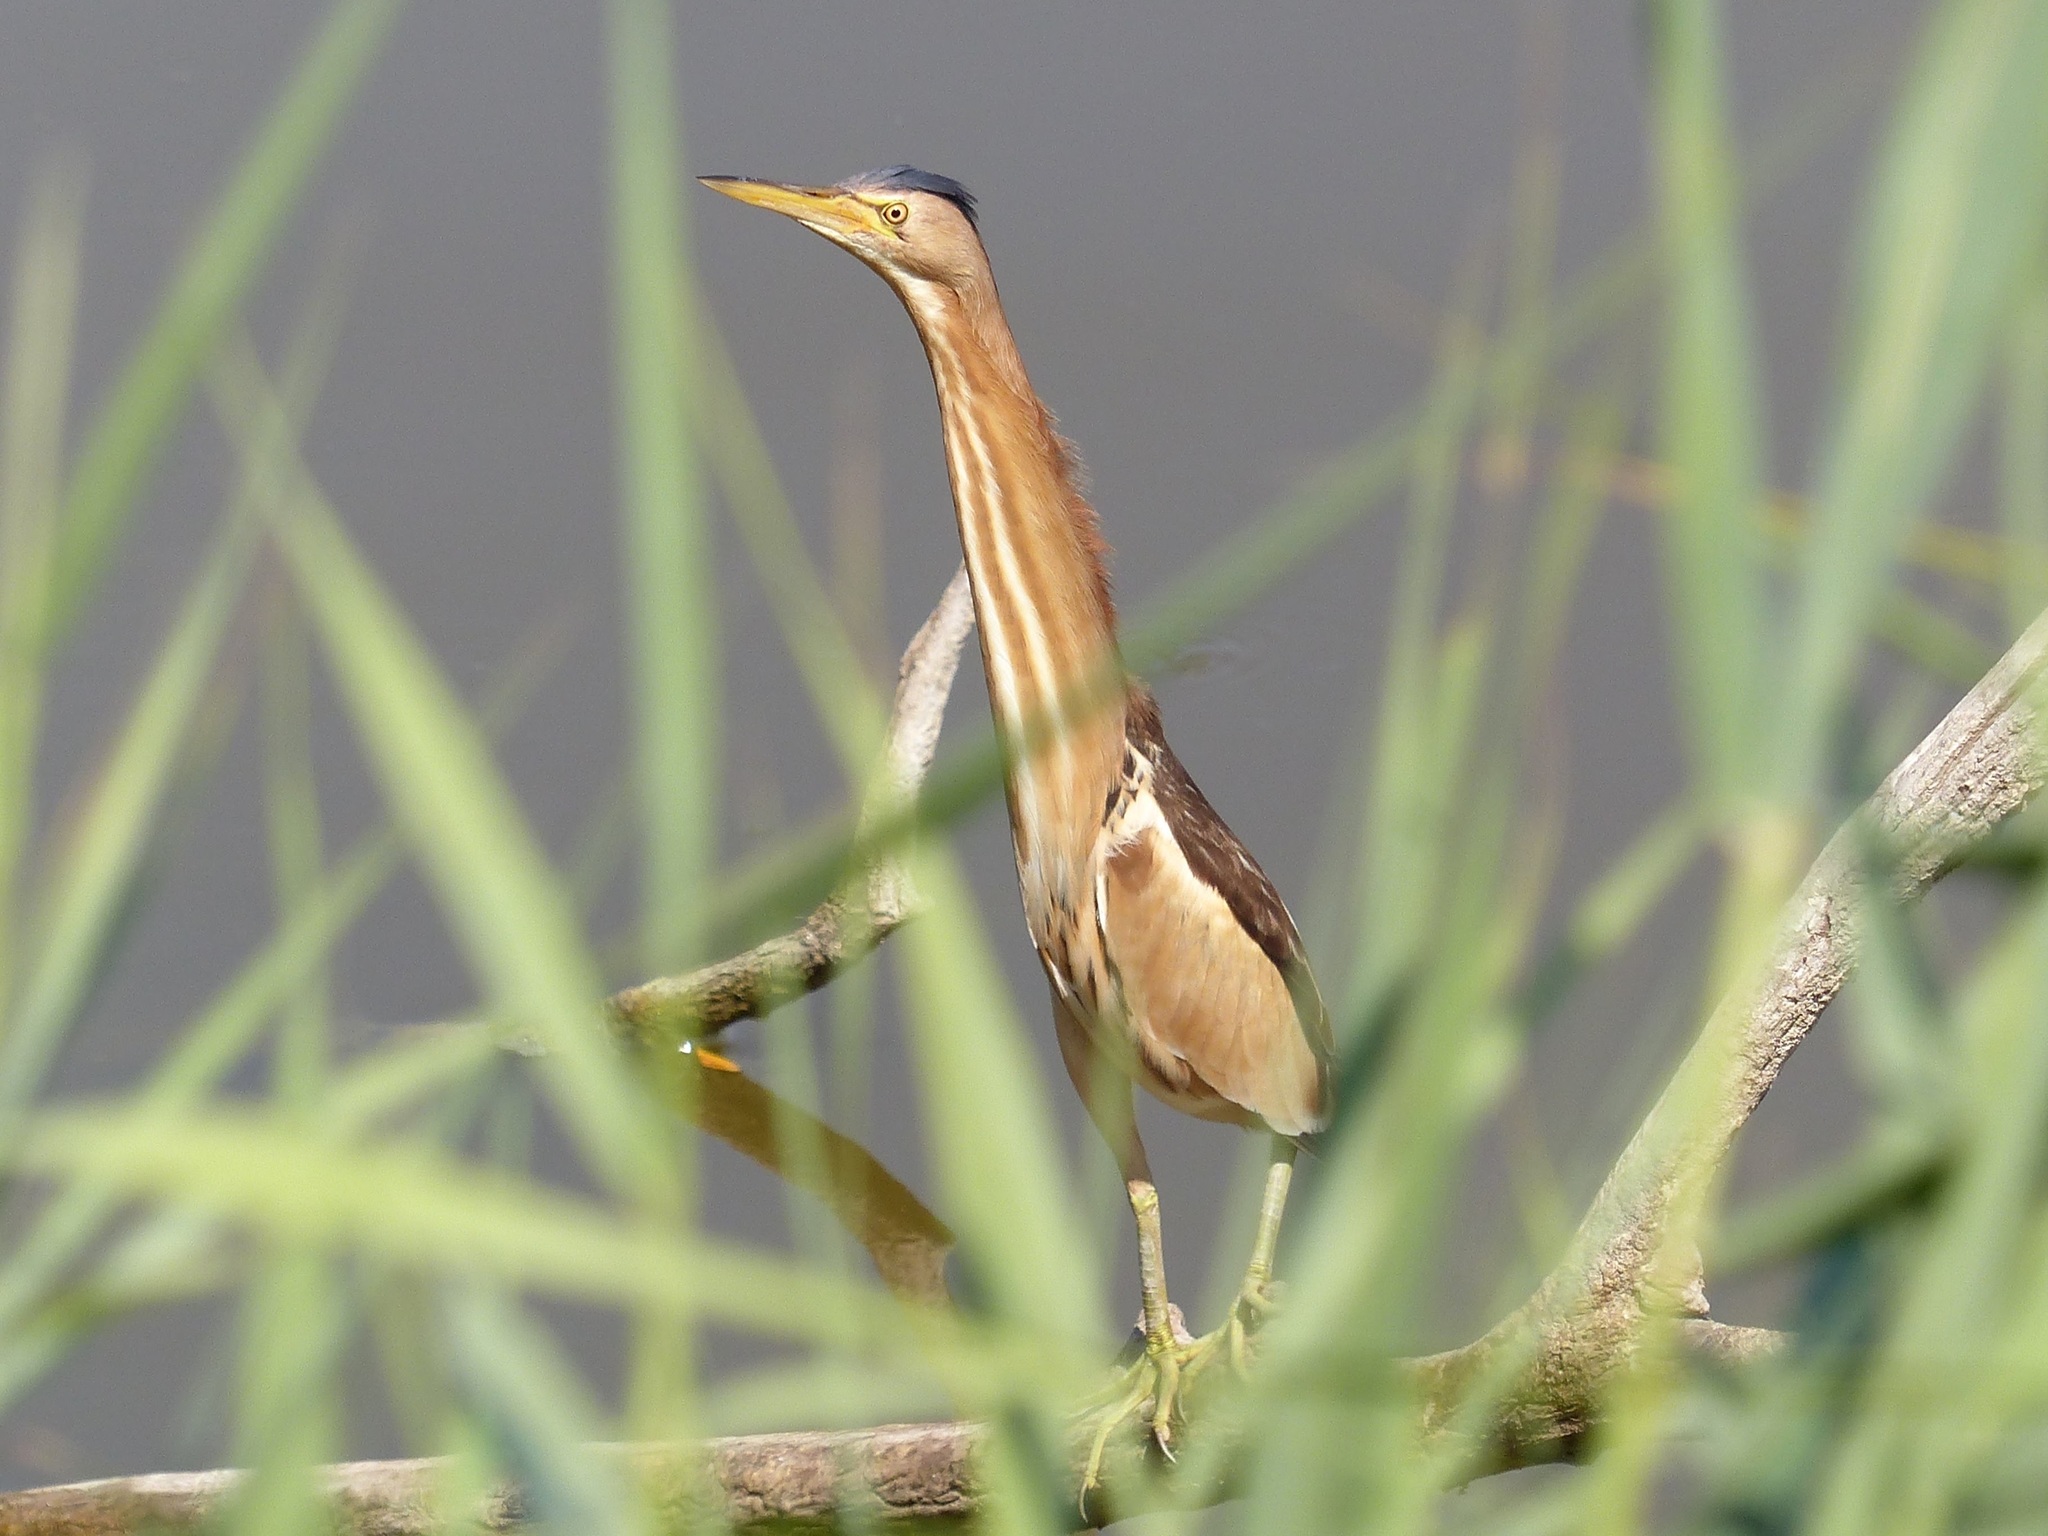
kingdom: Animalia
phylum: Chordata
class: Aves
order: Pelecaniformes
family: Ardeidae
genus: Ixobrychus
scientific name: Ixobrychus minutus
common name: Little bittern
